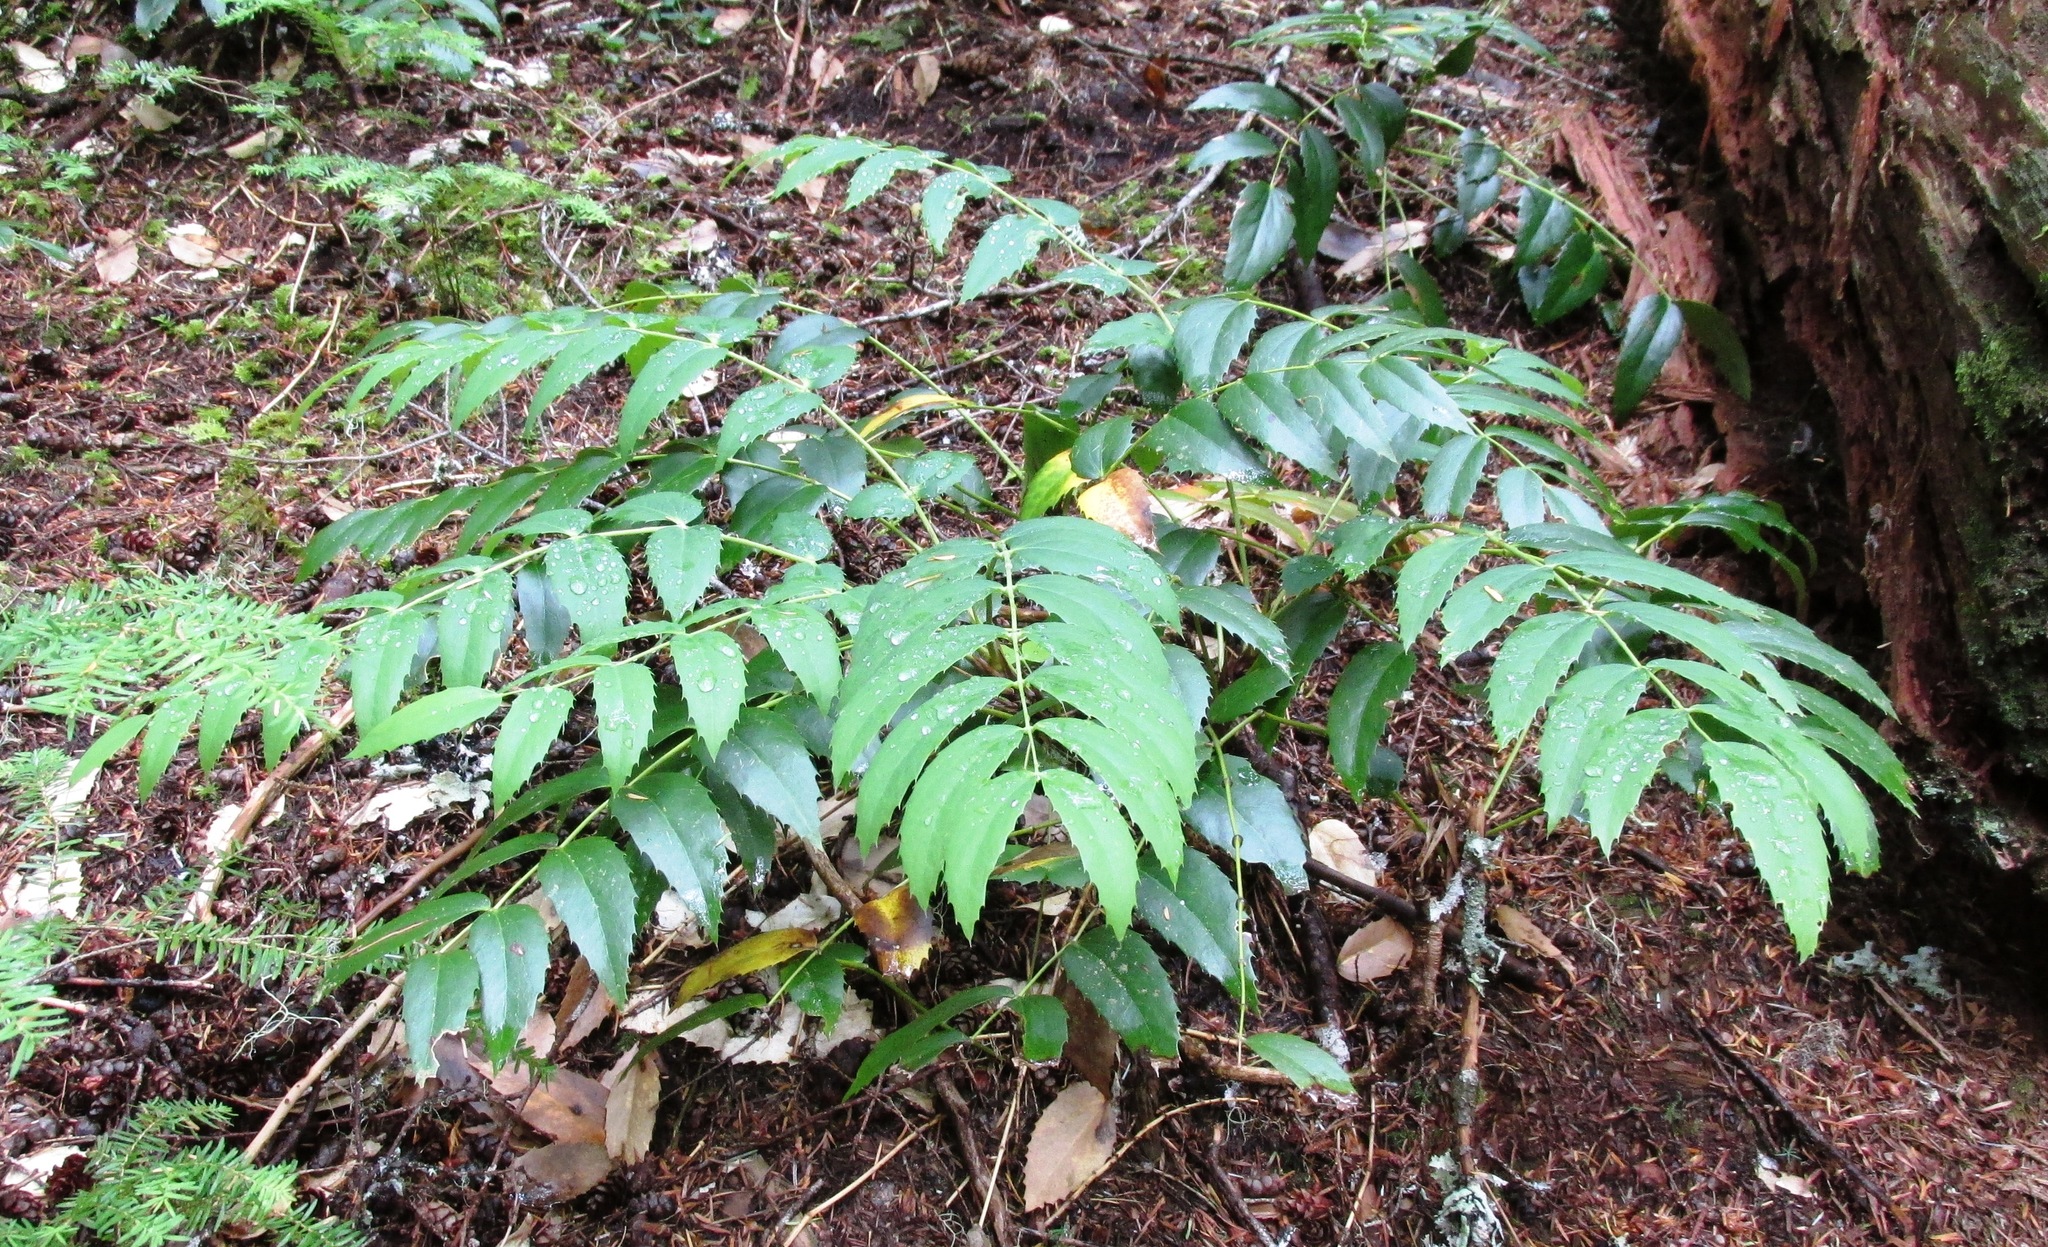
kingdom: Plantae
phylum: Tracheophyta
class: Magnoliopsida
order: Ranunculales
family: Berberidaceae
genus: Mahonia
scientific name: Mahonia nervosa
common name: Cascade oregon-grape
